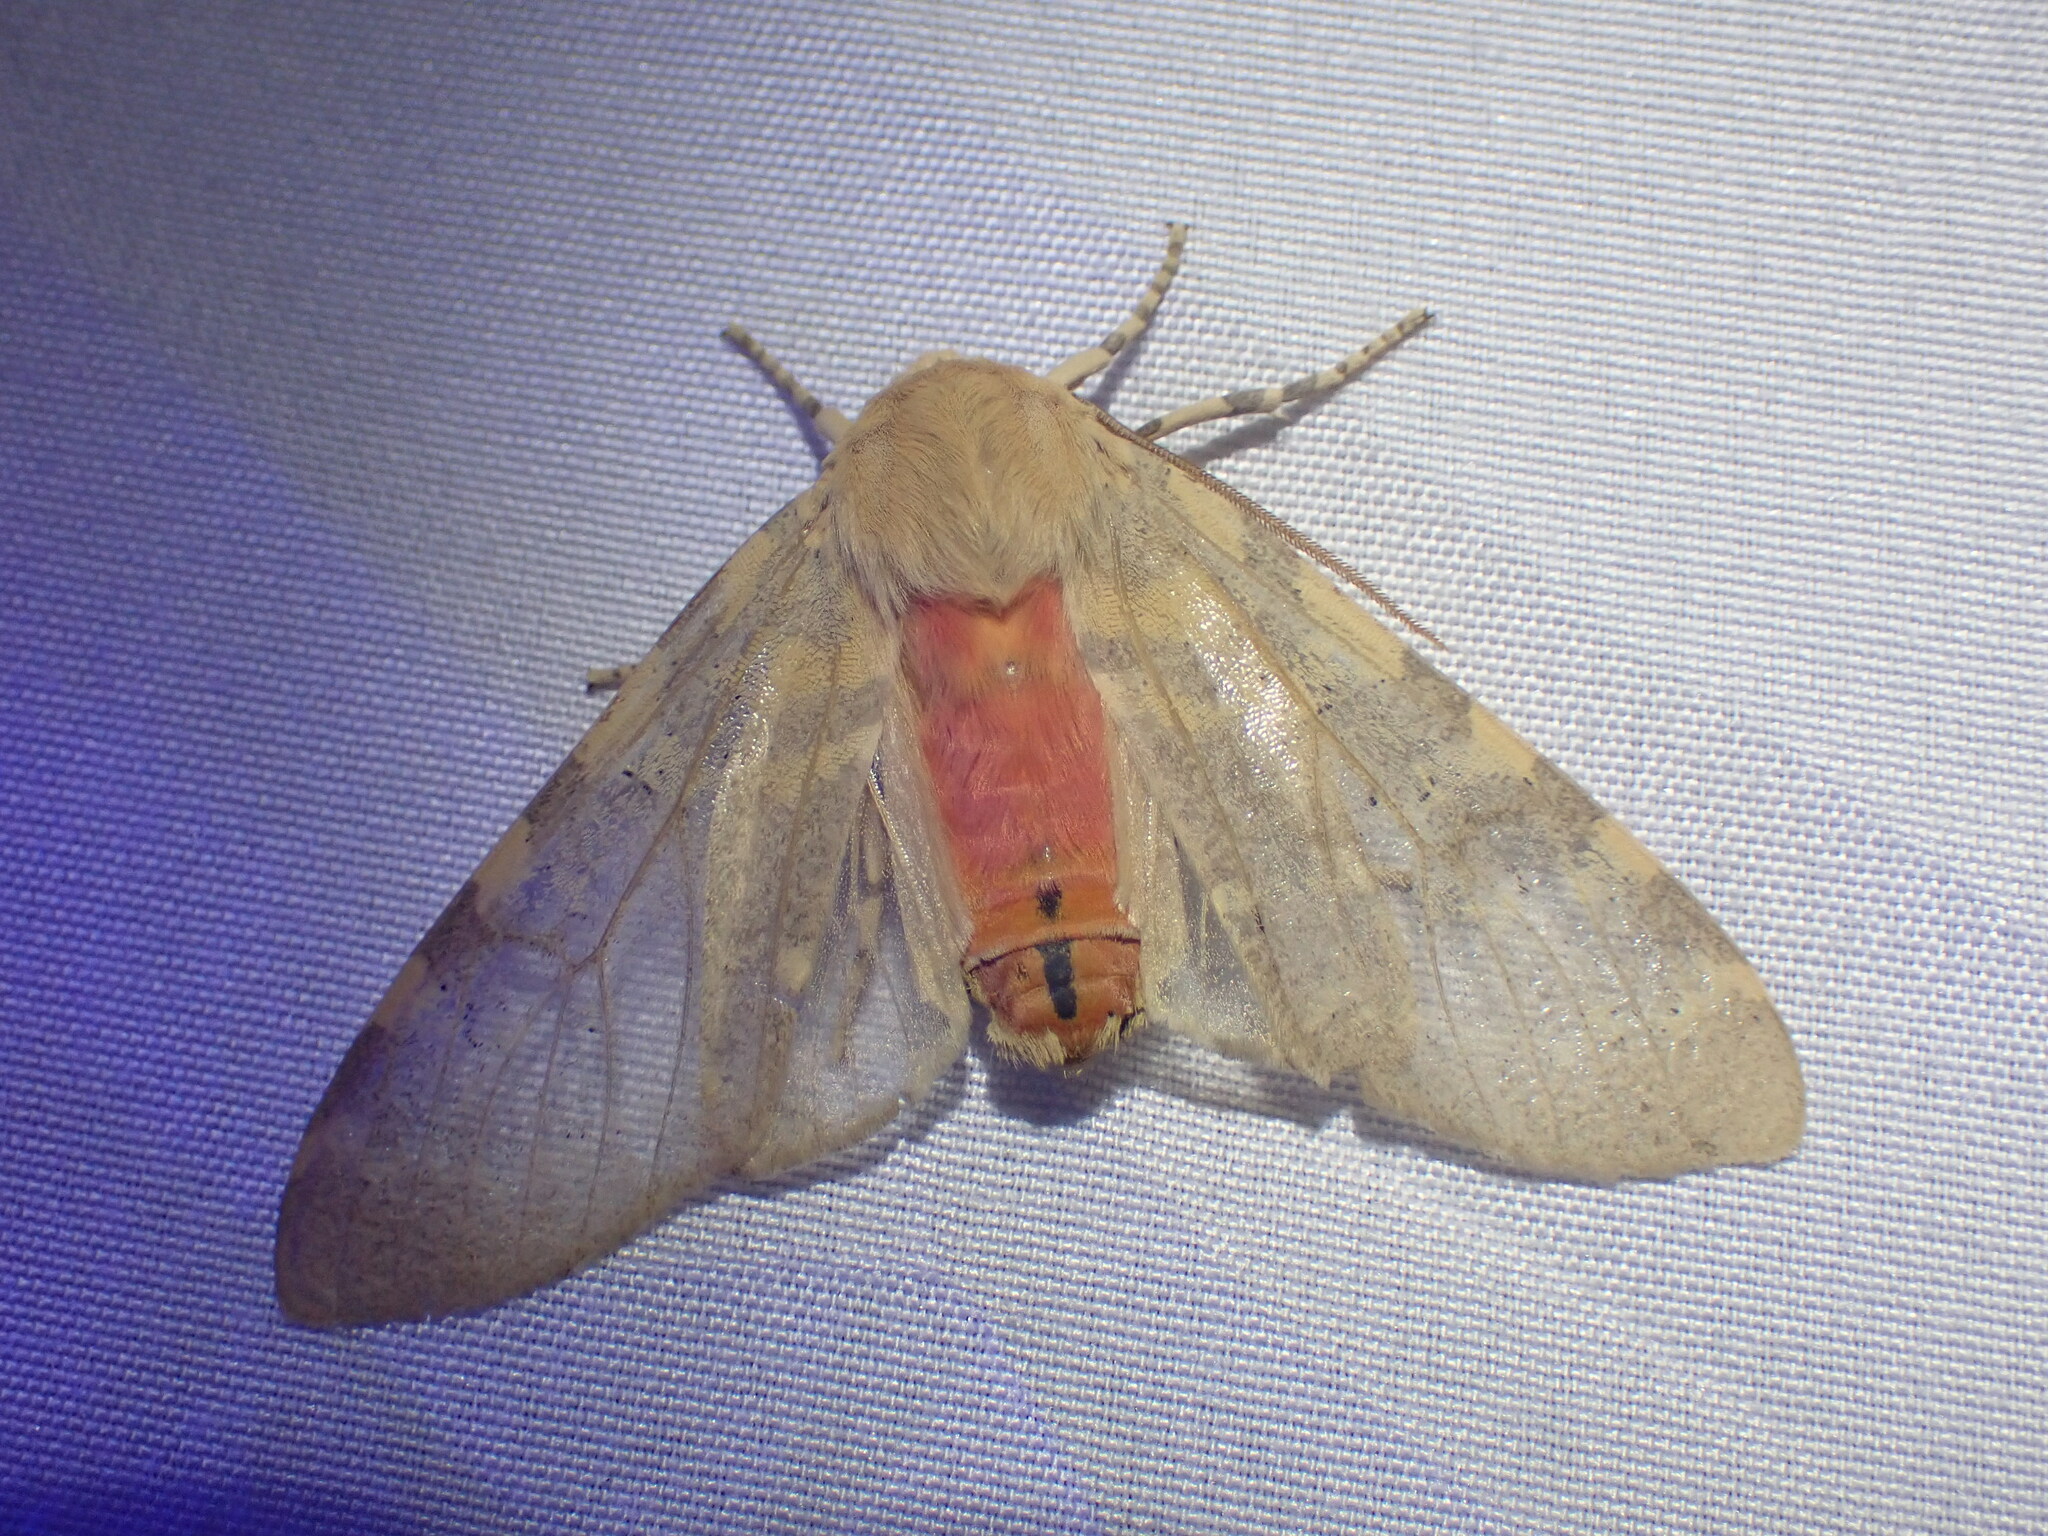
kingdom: Animalia
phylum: Arthropoda
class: Insecta
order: Lepidoptera
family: Erebidae
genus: Hemihyalea
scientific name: Hemihyalea edwardsii
